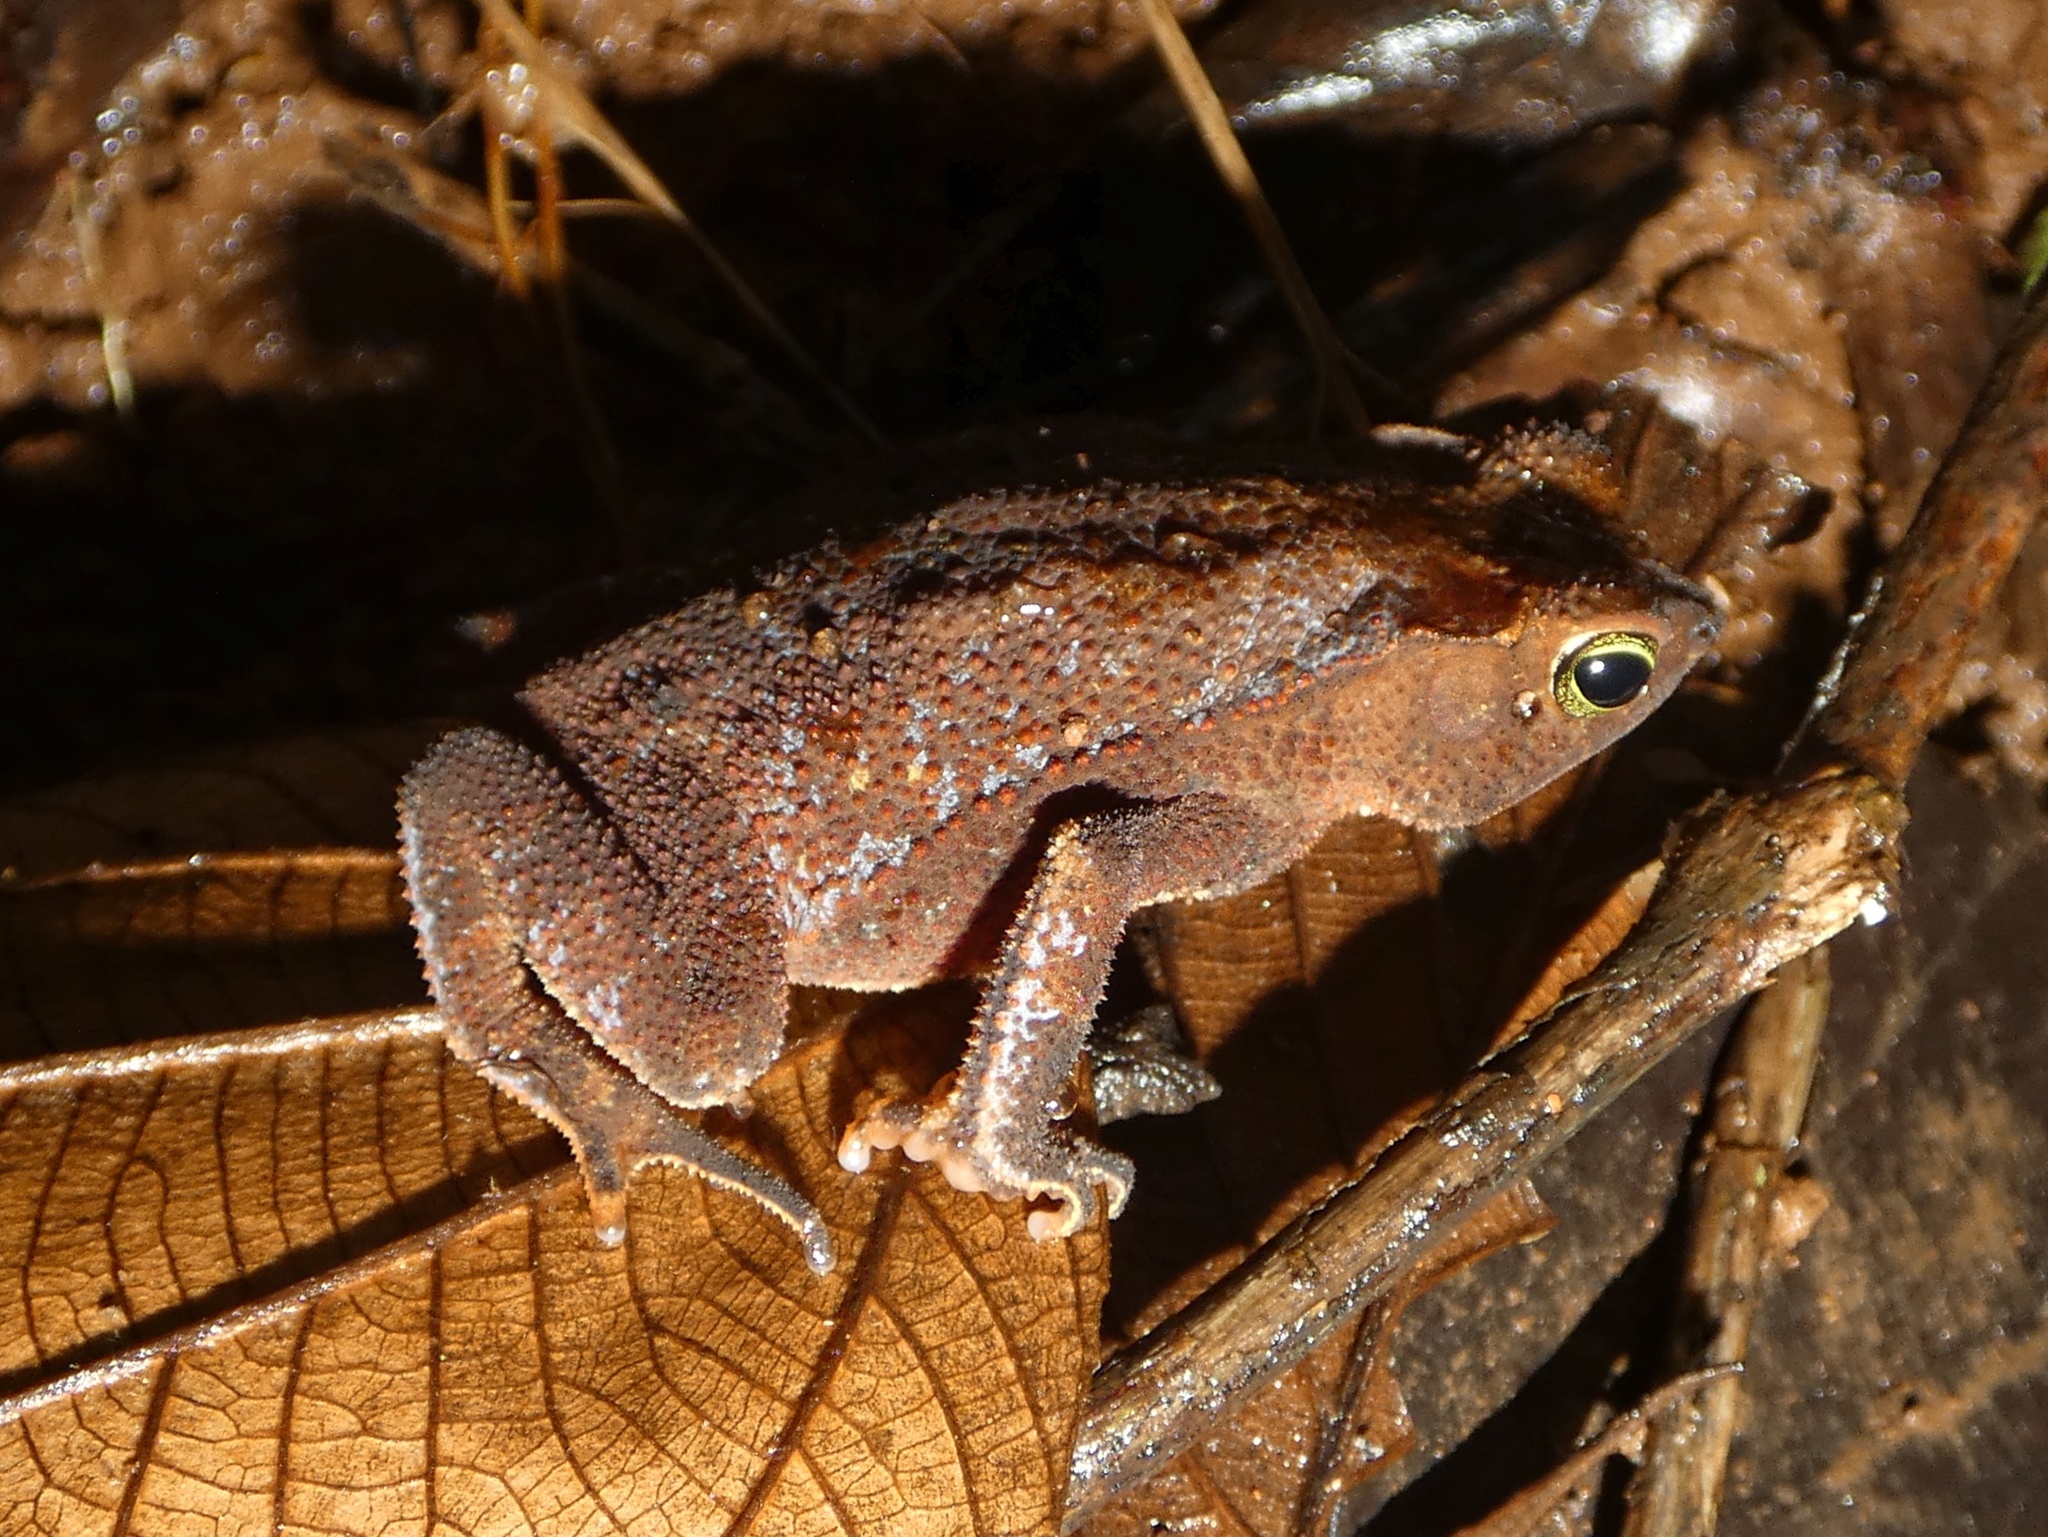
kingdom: Animalia
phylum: Chordata
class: Amphibia
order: Anura
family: Bufonidae
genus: Rhinella
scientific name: Rhinella alata
